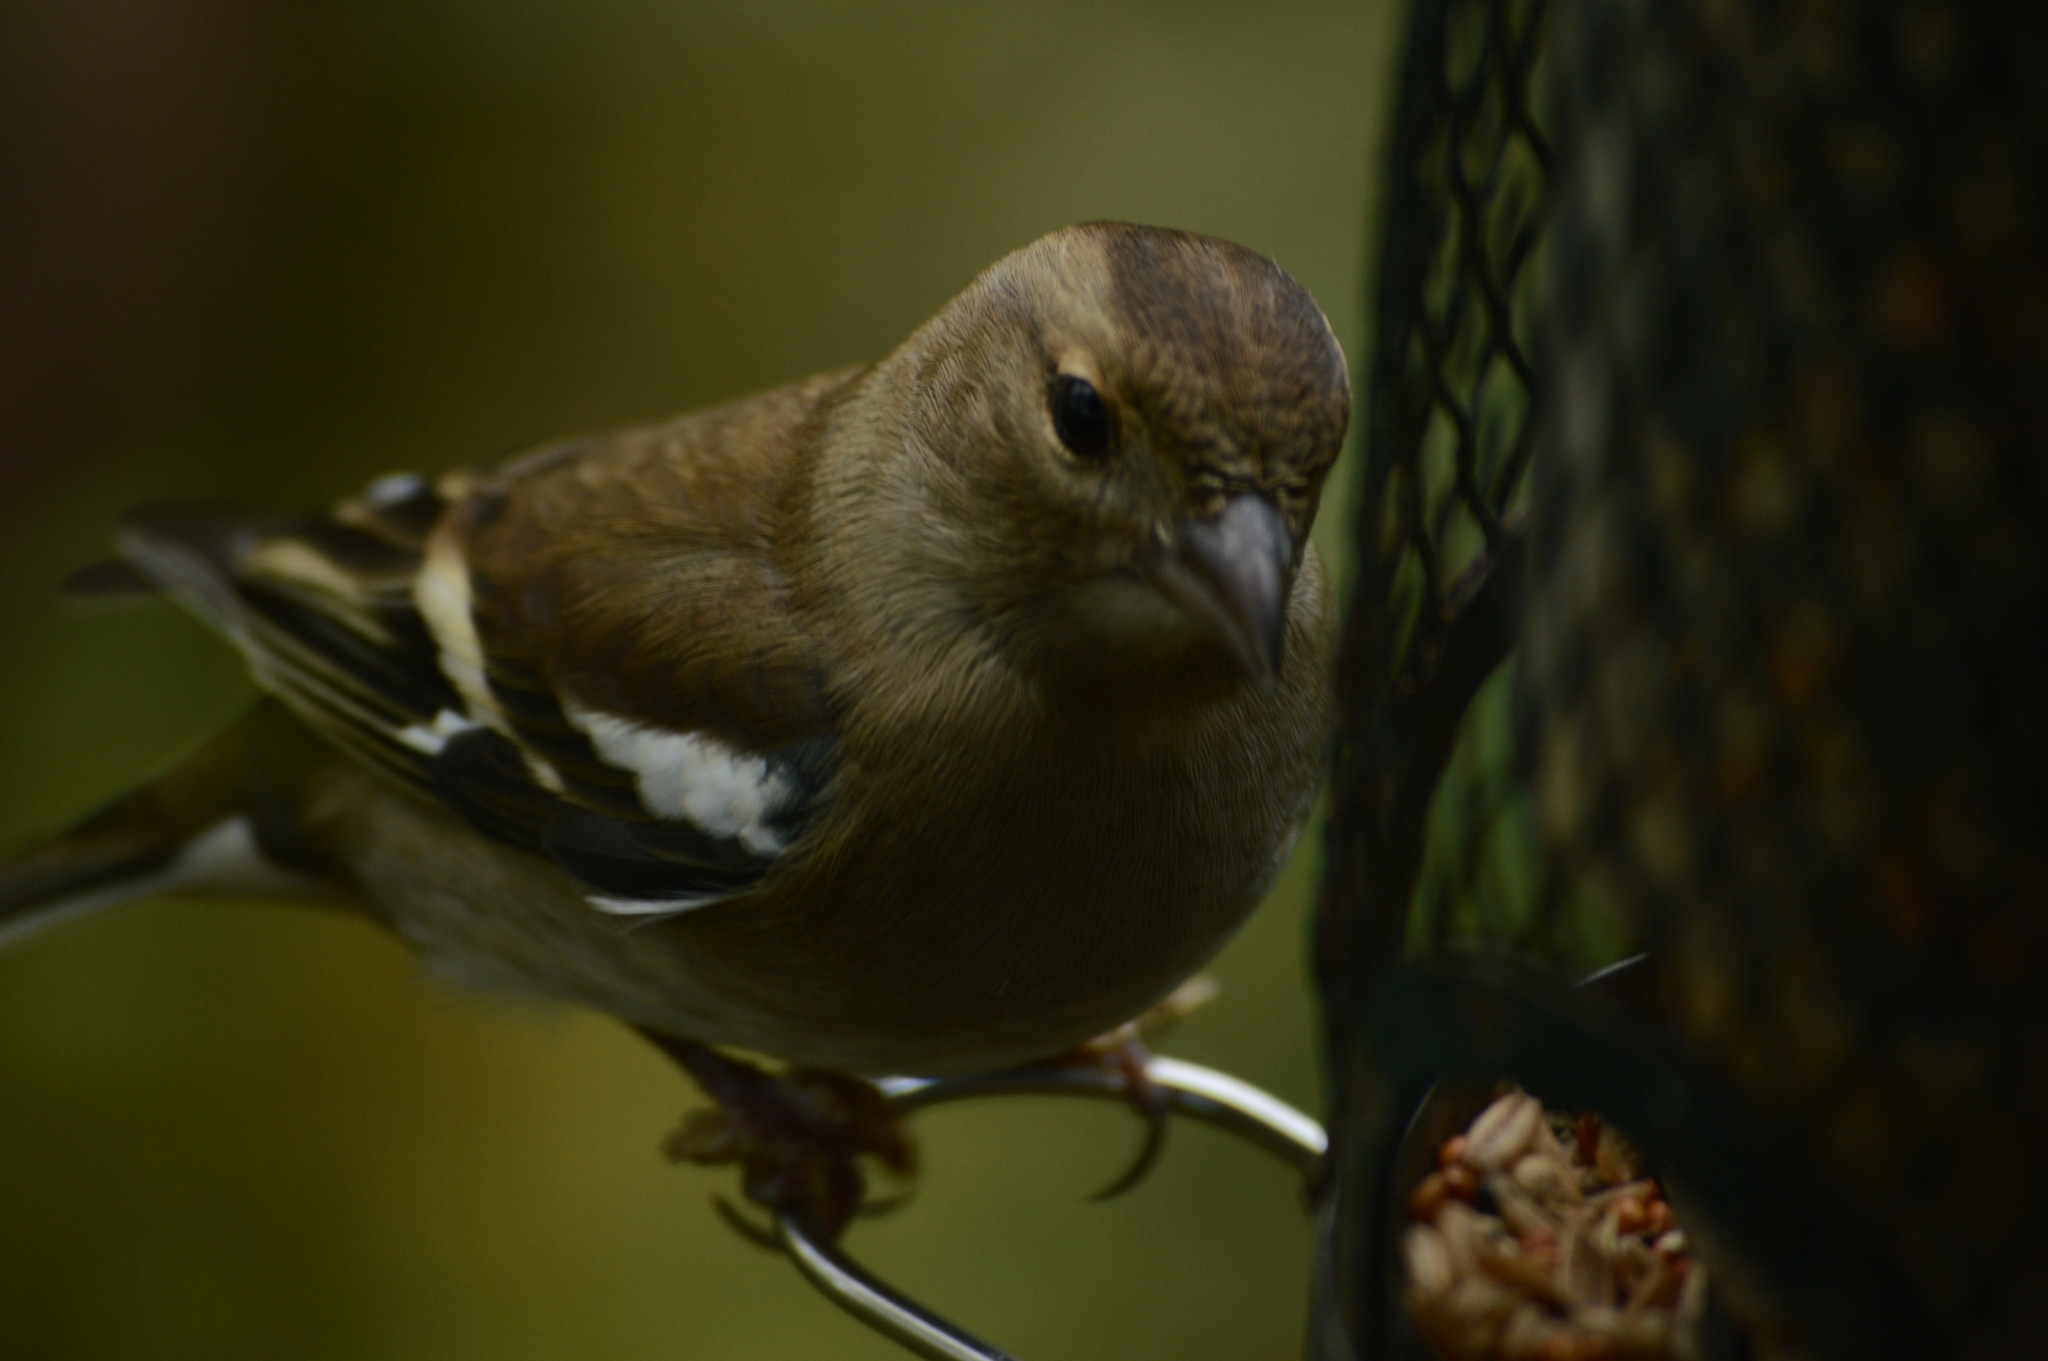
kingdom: Animalia
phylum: Chordata
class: Aves
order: Passeriformes
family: Fringillidae
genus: Fringilla
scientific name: Fringilla coelebs
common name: Common chaffinch
